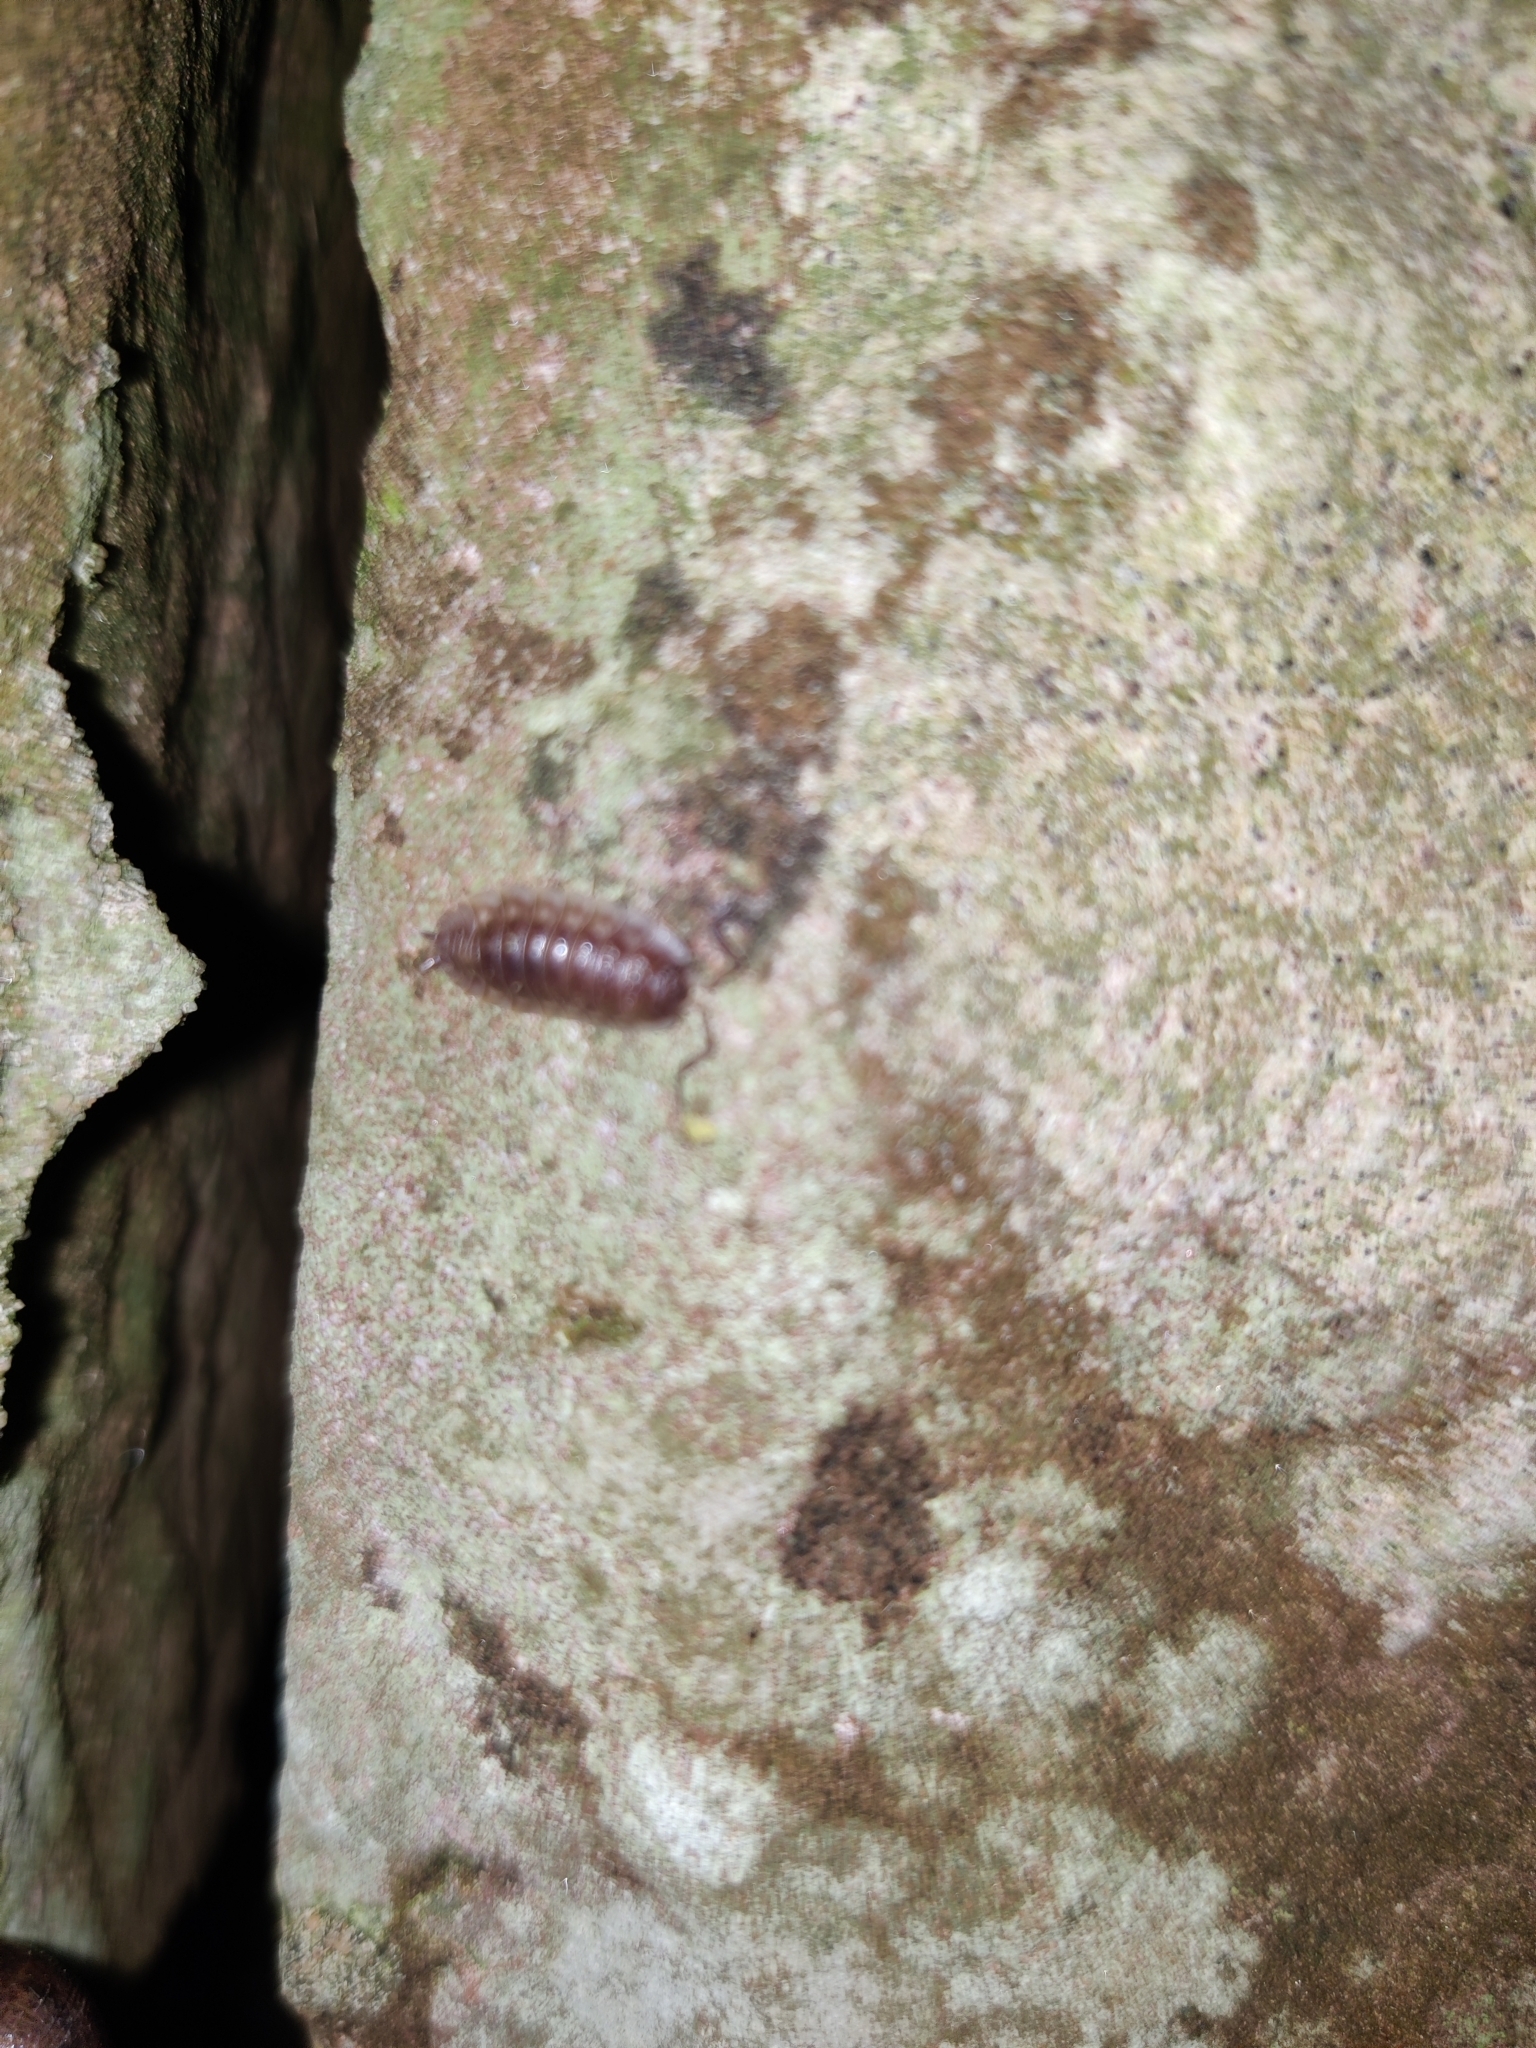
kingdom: Animalia
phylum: Arthropoda
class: Malacostraca
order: Isopoda
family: Oniscidae
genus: Oniscus
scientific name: Oniscus asellus
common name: Common shiny woodlouse
